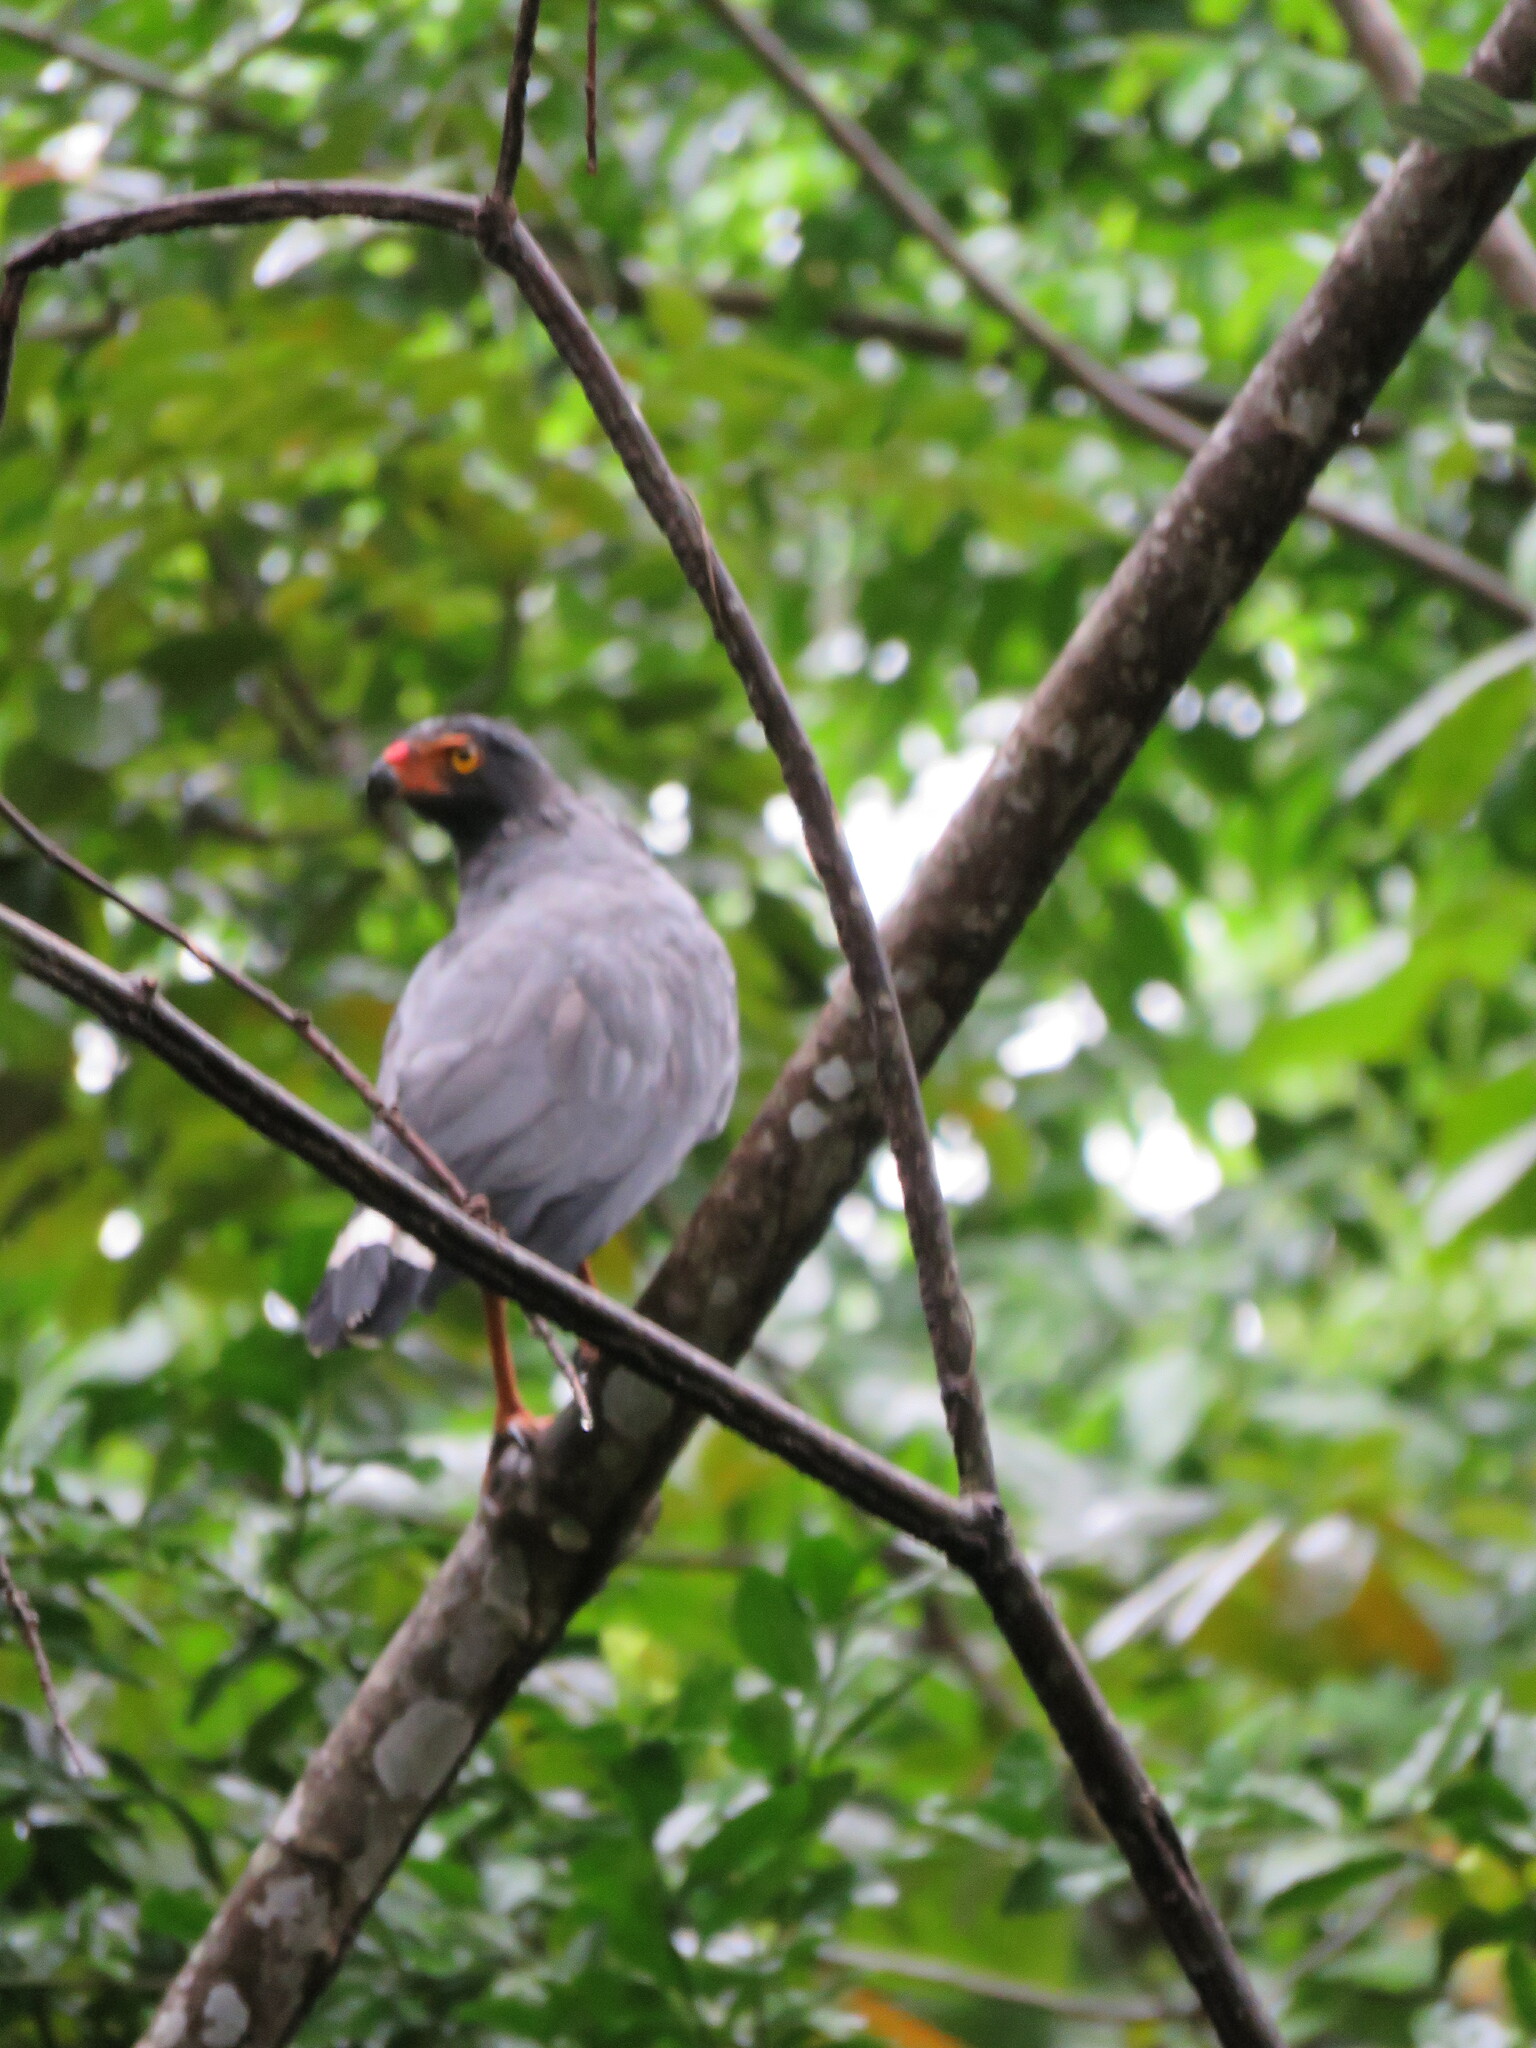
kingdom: Animalia
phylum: Chordata
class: Aves
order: Accipitriformes
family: Accipitridae
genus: Leucopternis
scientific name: Leucopternis schistaceus
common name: Slate-colored hawk
